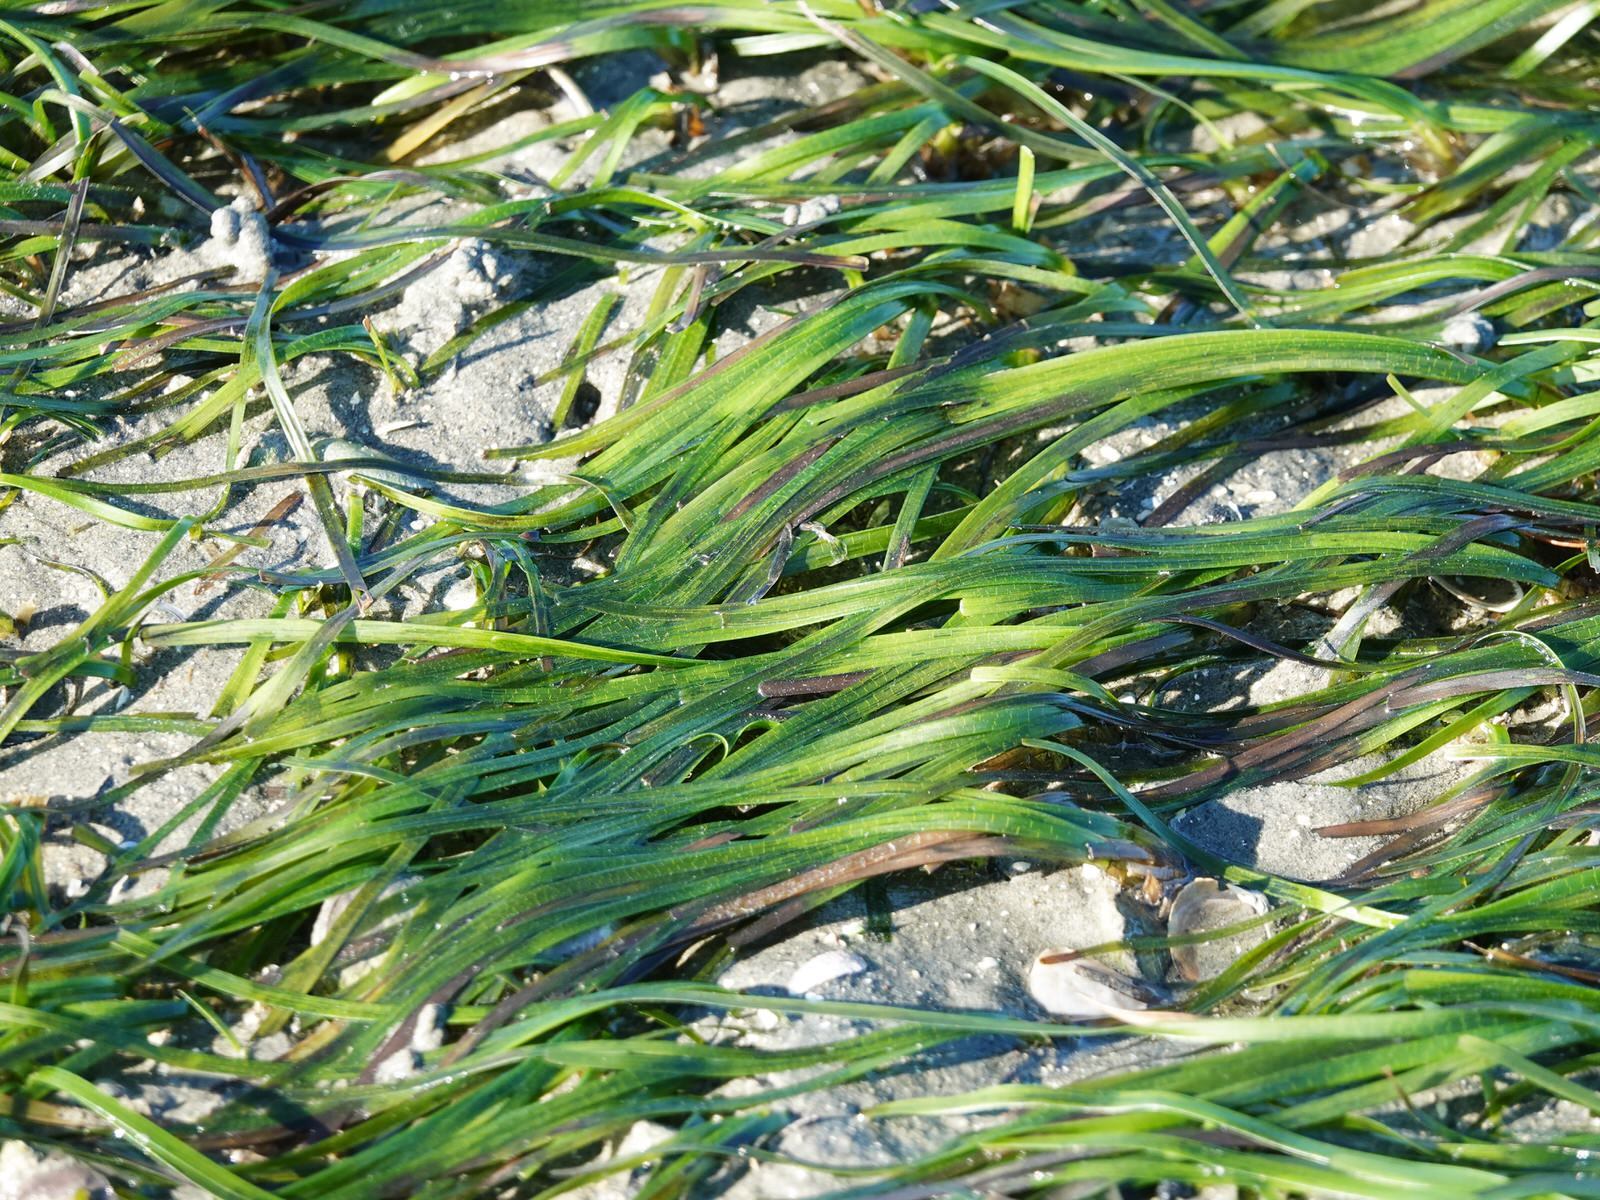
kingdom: Plantae
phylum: Tracheophyta
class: Liliopsida
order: Alismatales
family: Zosteraceae
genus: Zostera
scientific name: Zostera novazelandica
